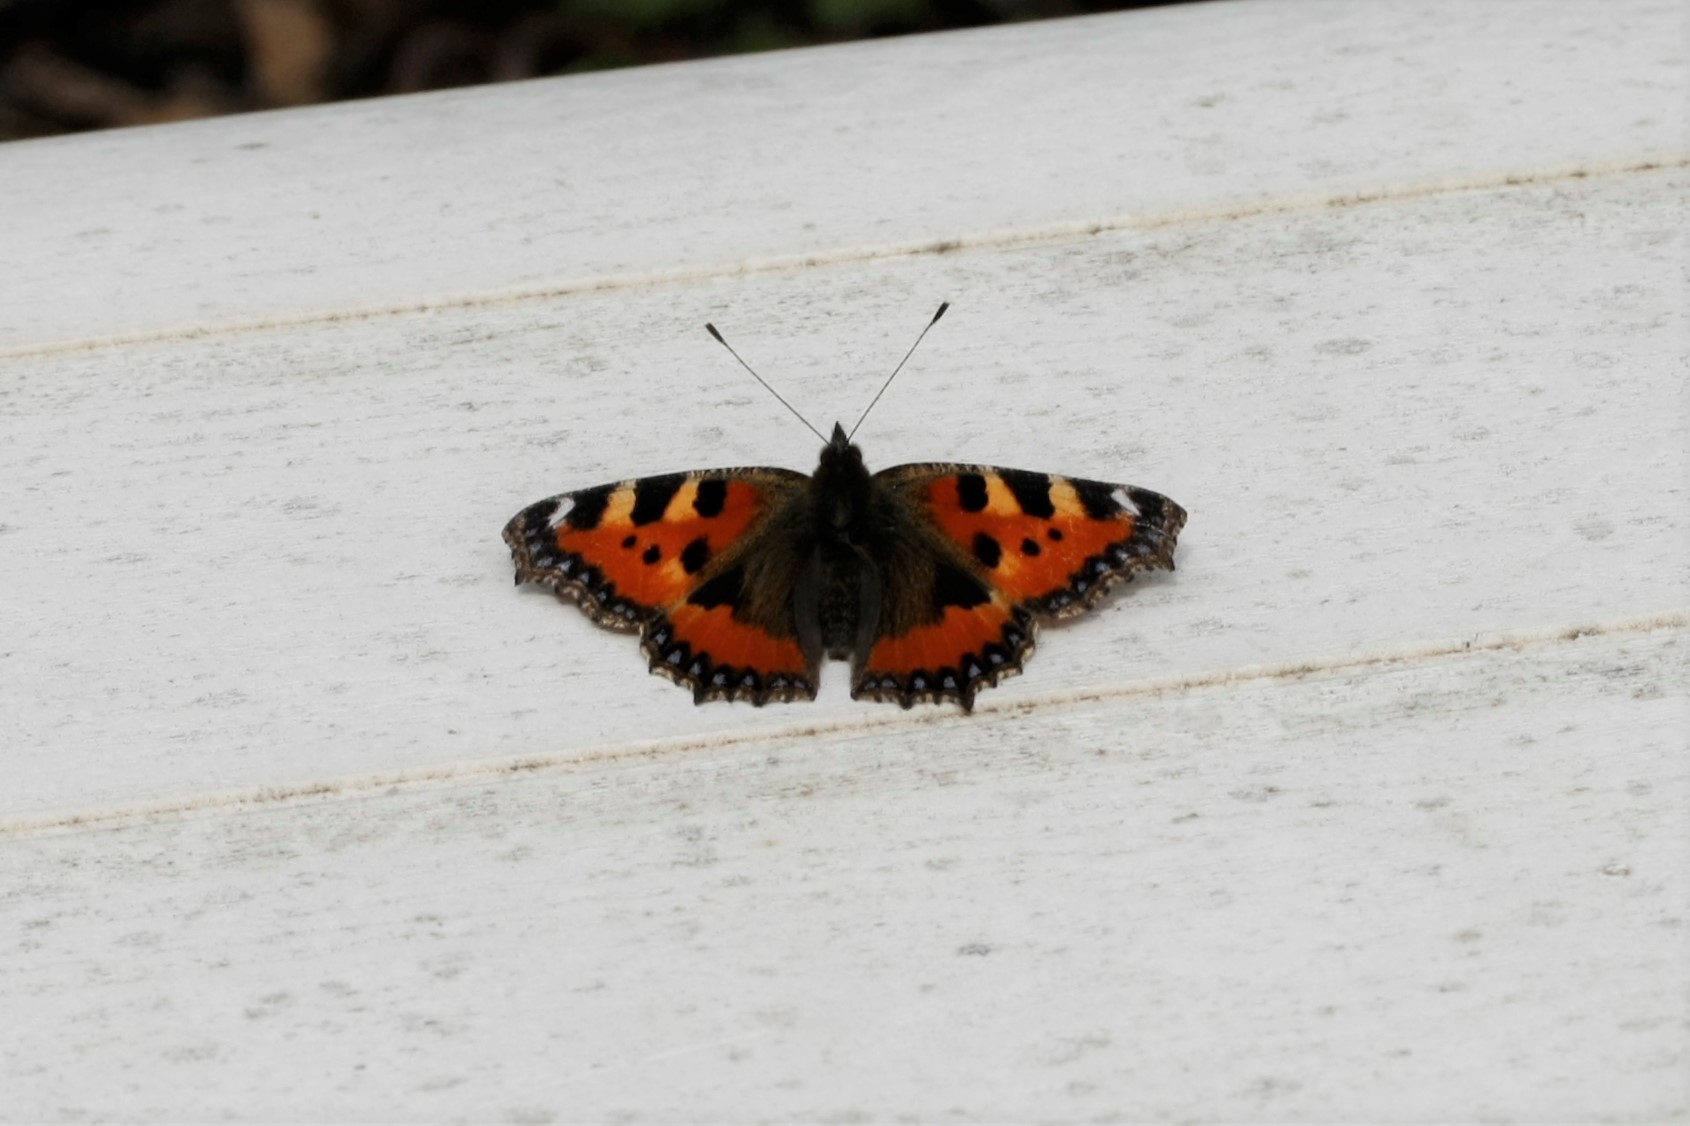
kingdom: Animalia
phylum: Arthropoda
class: Insecta
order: Lepidoptera
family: Nymphalidae
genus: Aglais
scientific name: Aglais urticae
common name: Small tortoiseshell
